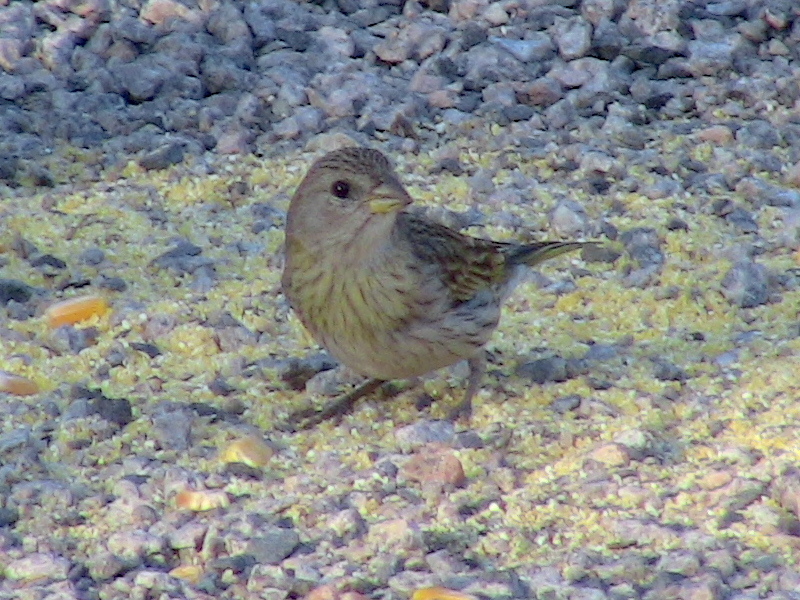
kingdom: Animalia
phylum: Chordata
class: Aves
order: Passeriformes
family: Thraupidae
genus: Sicalis
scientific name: Sicalis flaveola
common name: Saffron finch
